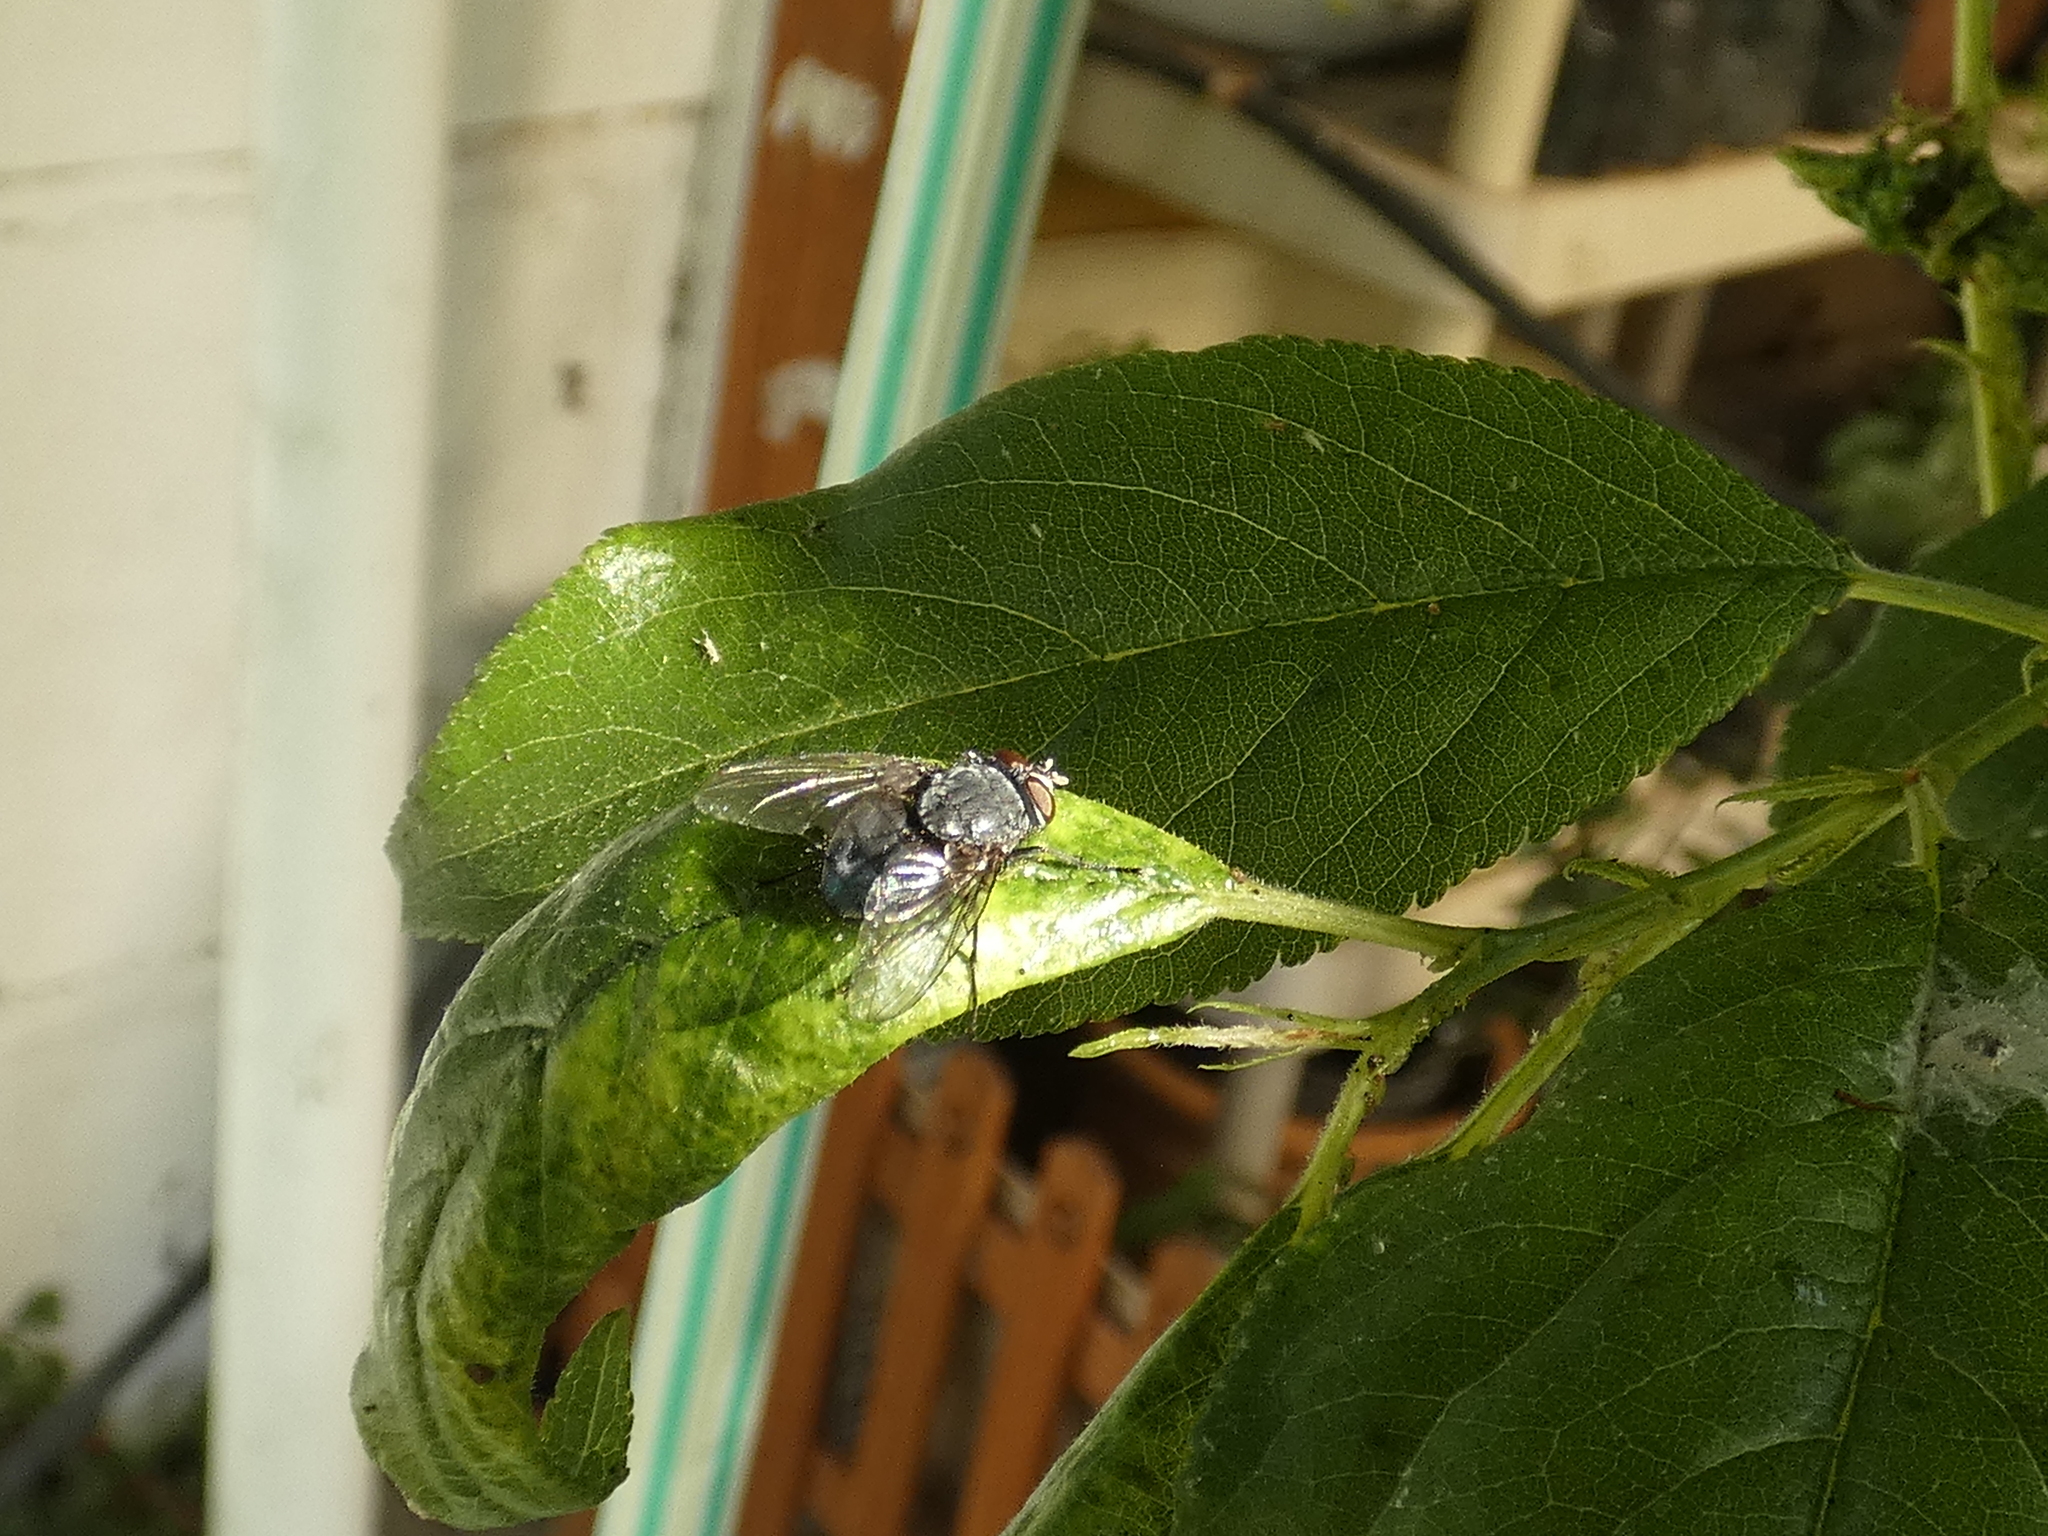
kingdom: Animalia
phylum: Arthropoda
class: Insecta
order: Diptera
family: Calliphoridae
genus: Calliphora
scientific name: Calliphora vicina
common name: Common blow flie
